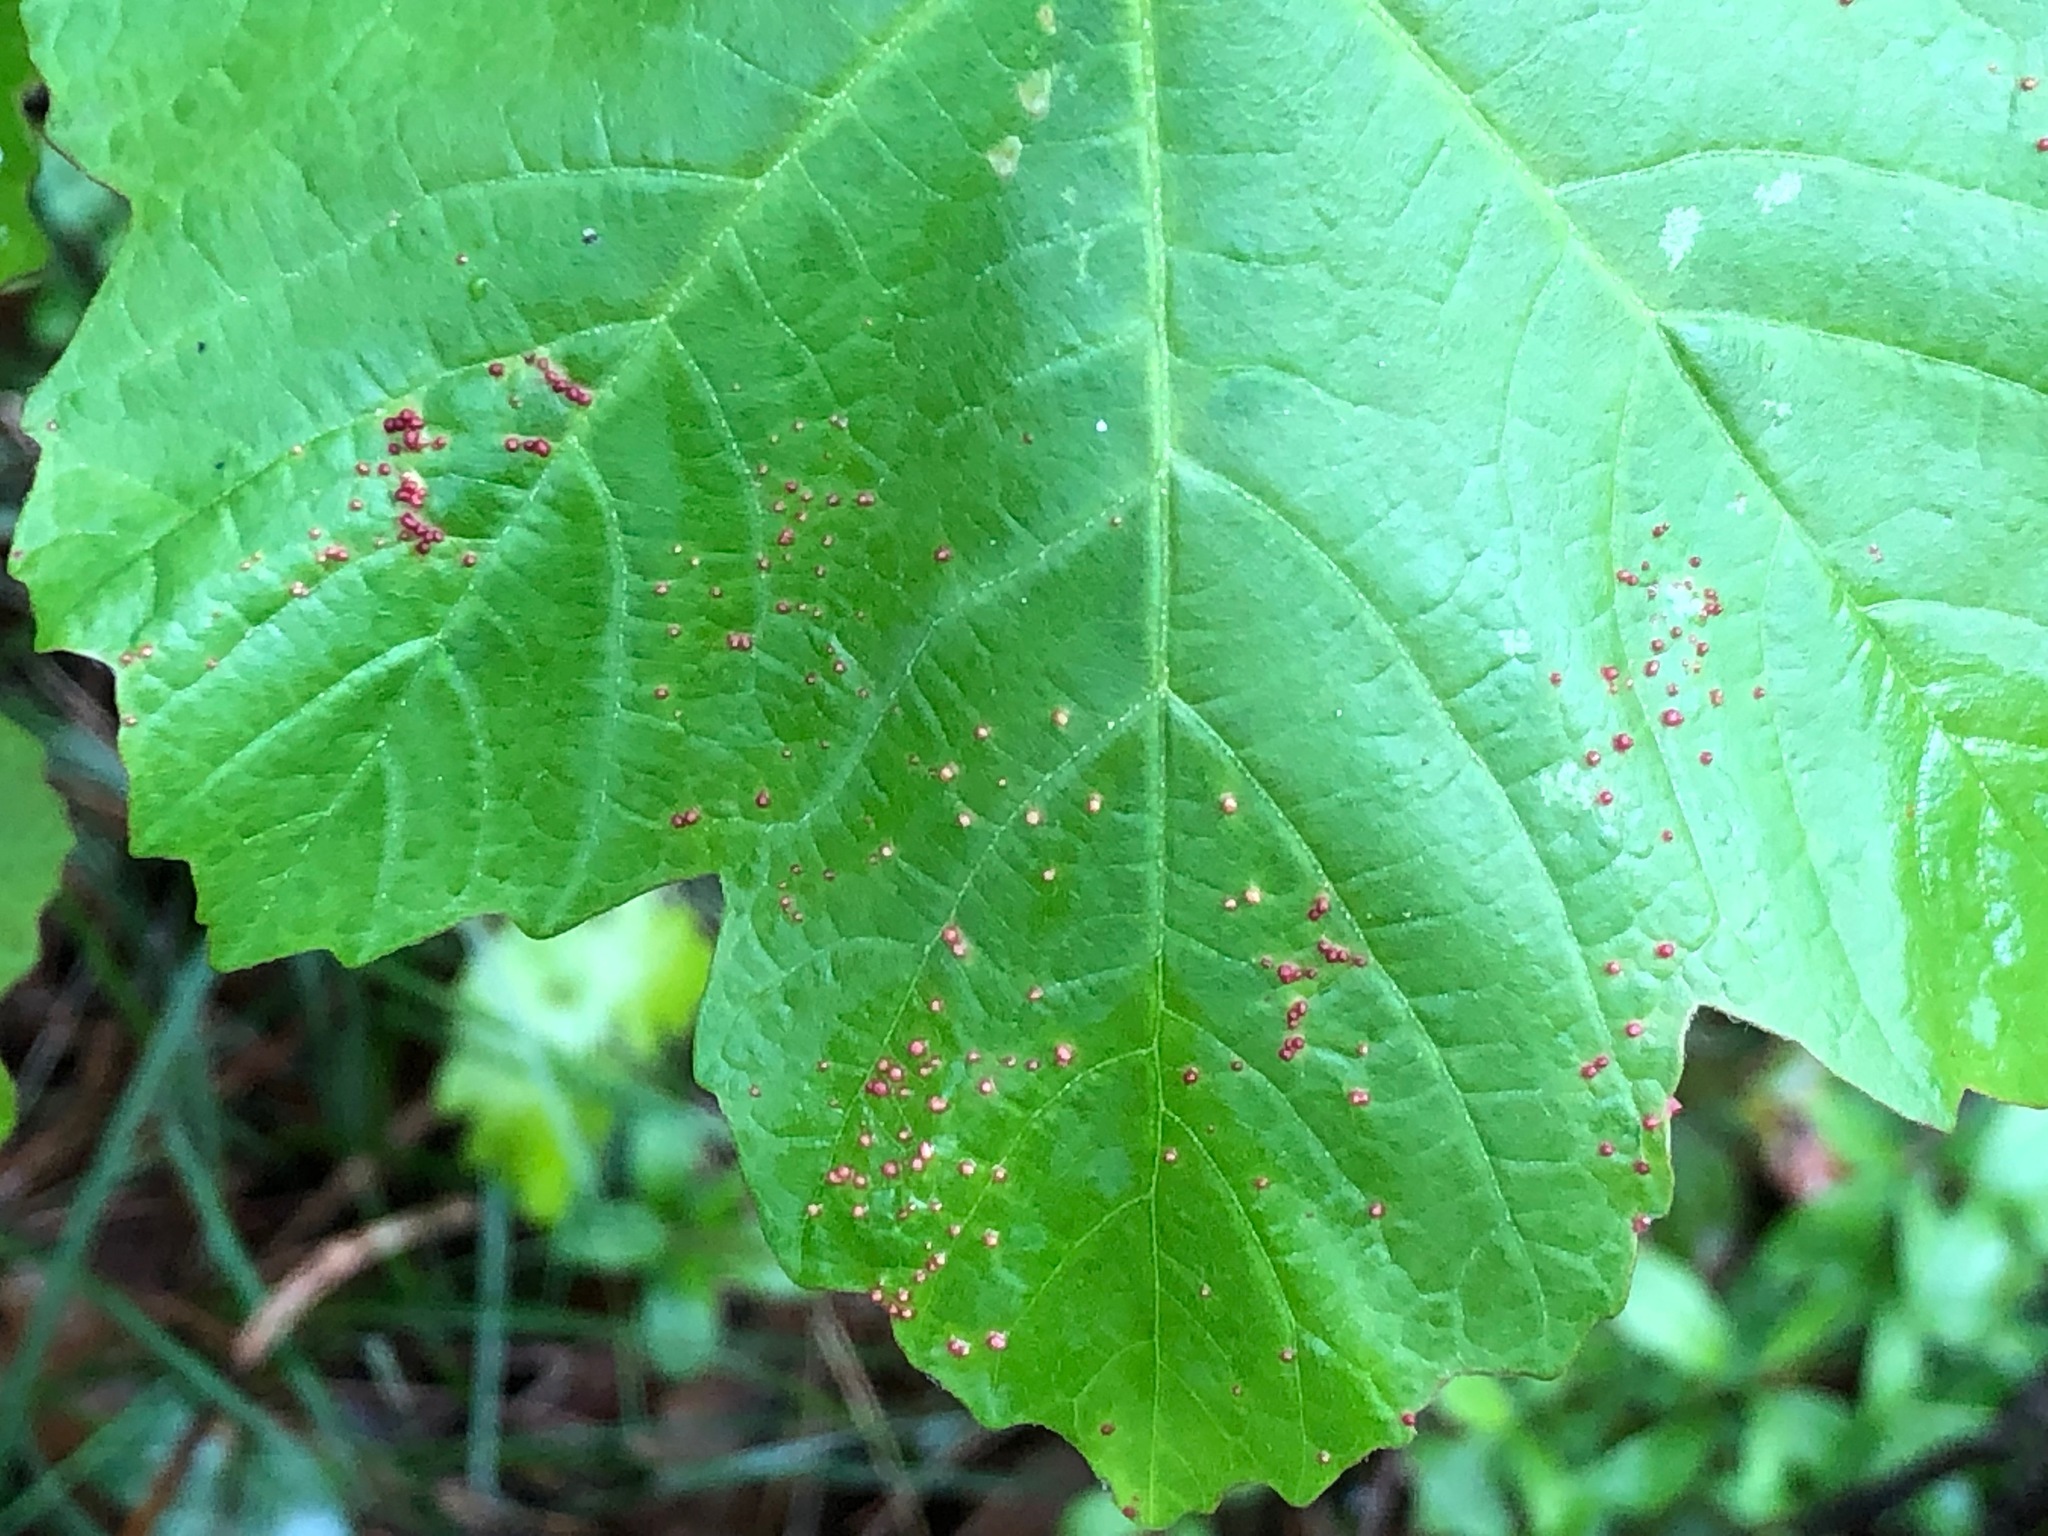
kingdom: Animalia
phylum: Arthropoda
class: Arachnida
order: Trombidiformes
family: Eriophyidae
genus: Aceria
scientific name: Aceria cephaloneus
